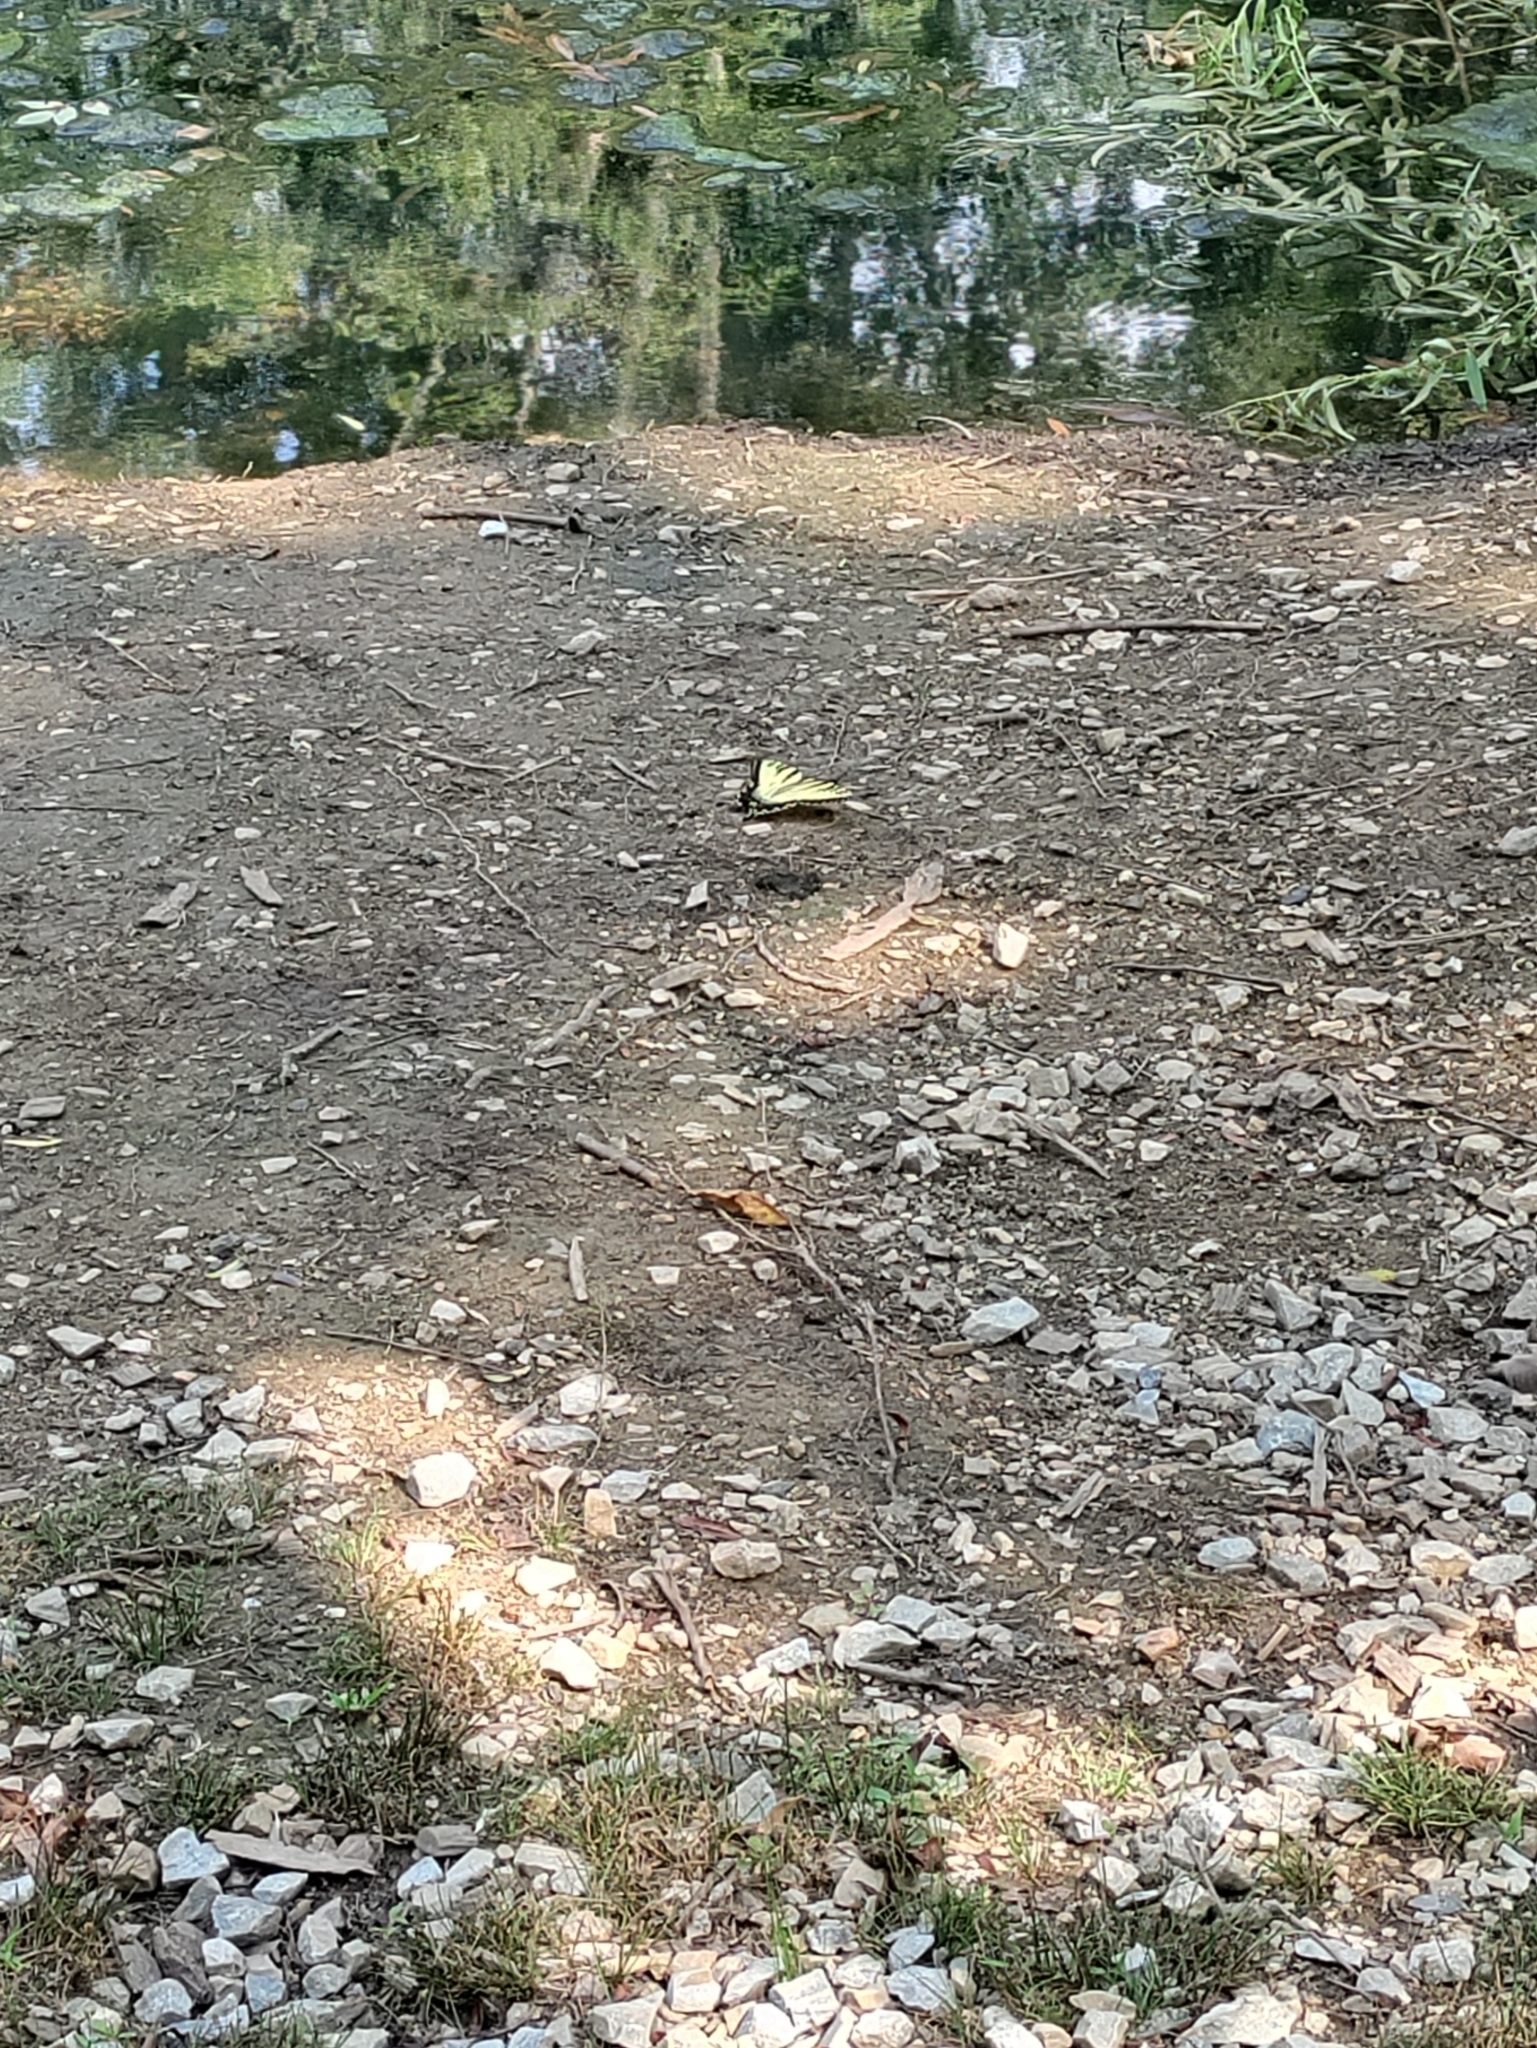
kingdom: Animalia
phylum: Arthropoda
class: Insecta
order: Lepidoptera
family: Papilionidae
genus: Papilio
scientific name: Papilio glaucus
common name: Tiger swallowtail
